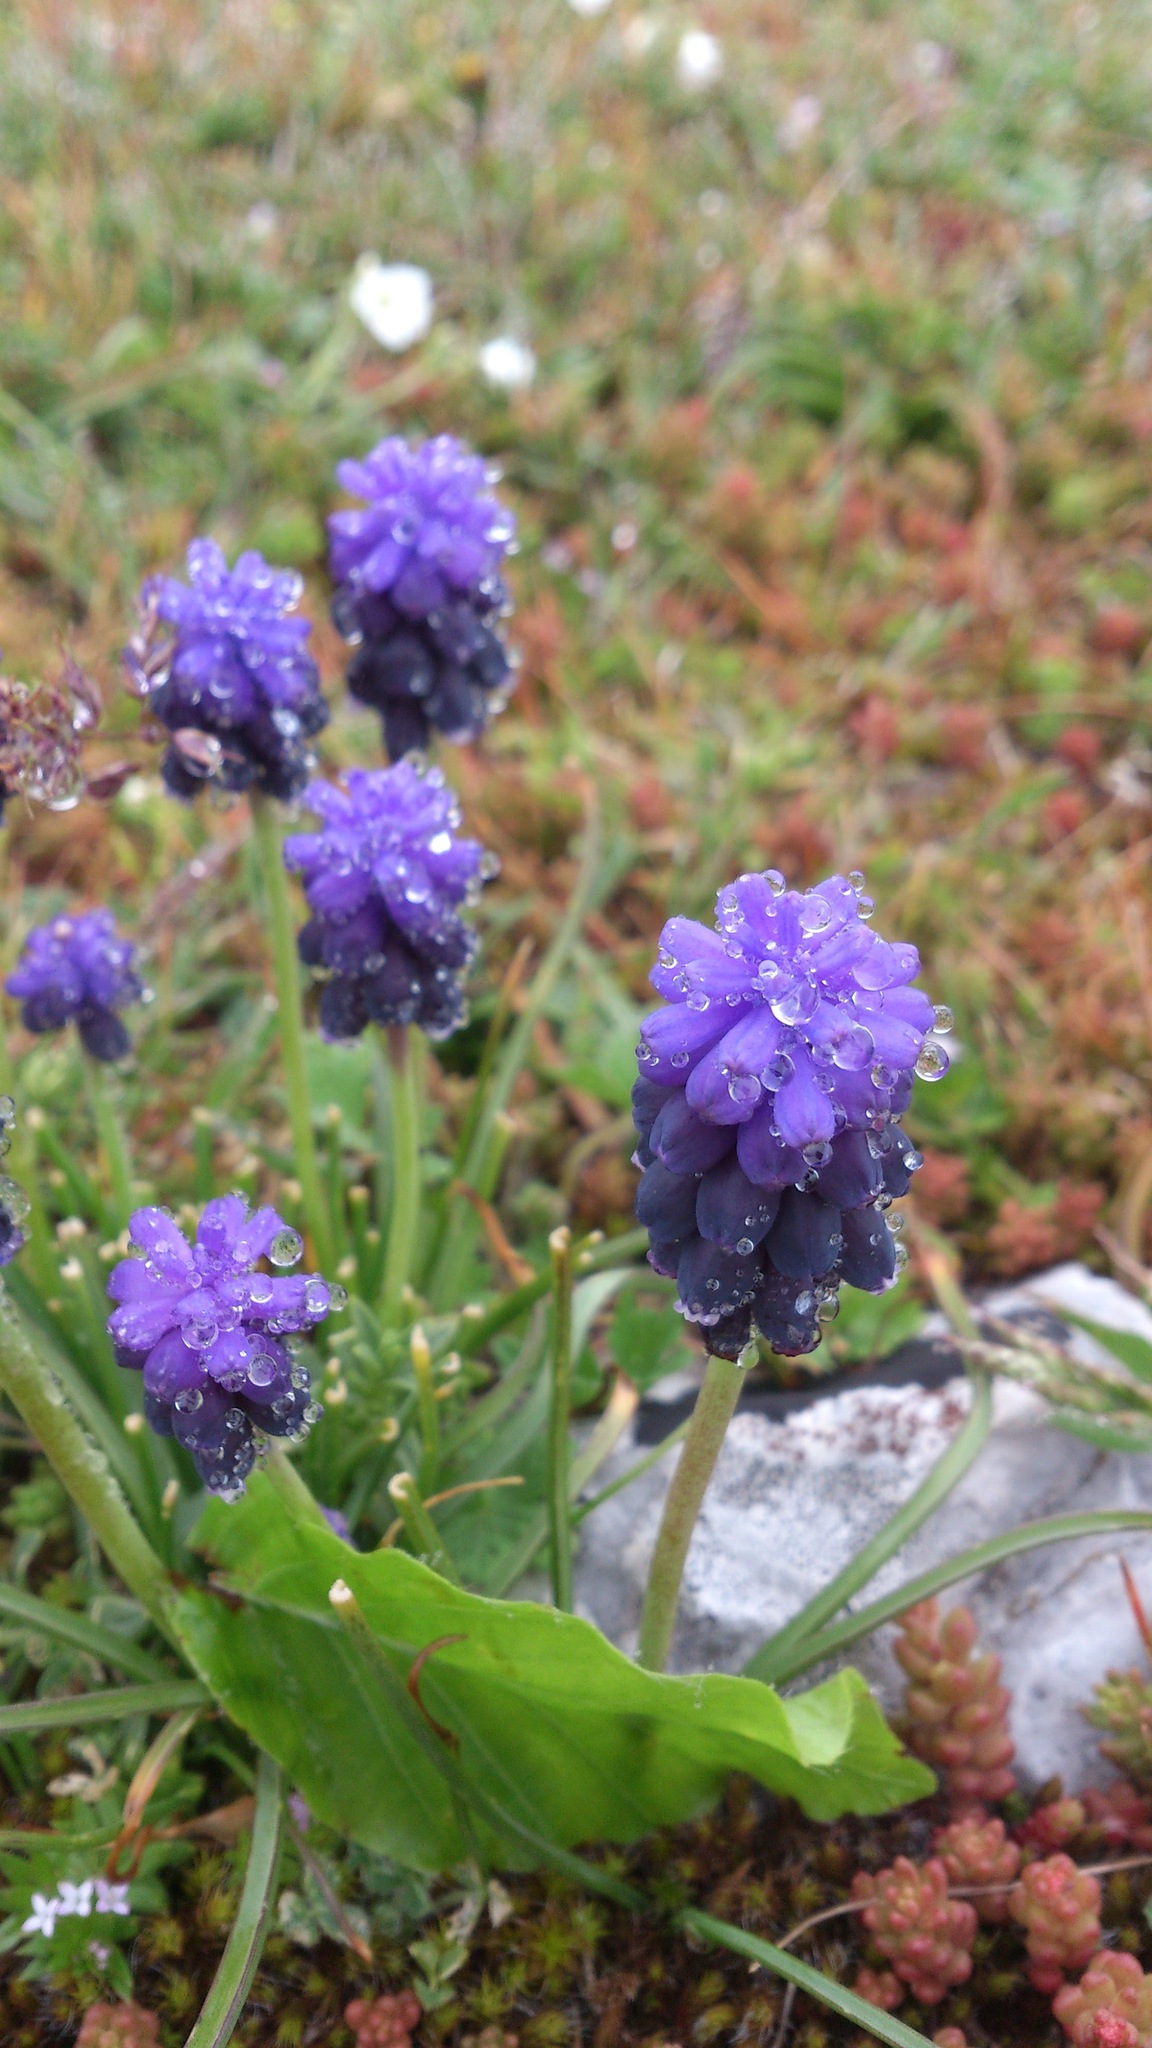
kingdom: Plantae
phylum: Tracheophyta
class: Liliopsida
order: Asparagales
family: Asparagaceae
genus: Muscari
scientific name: Muscari neglectum
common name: Grape-hyacinth
